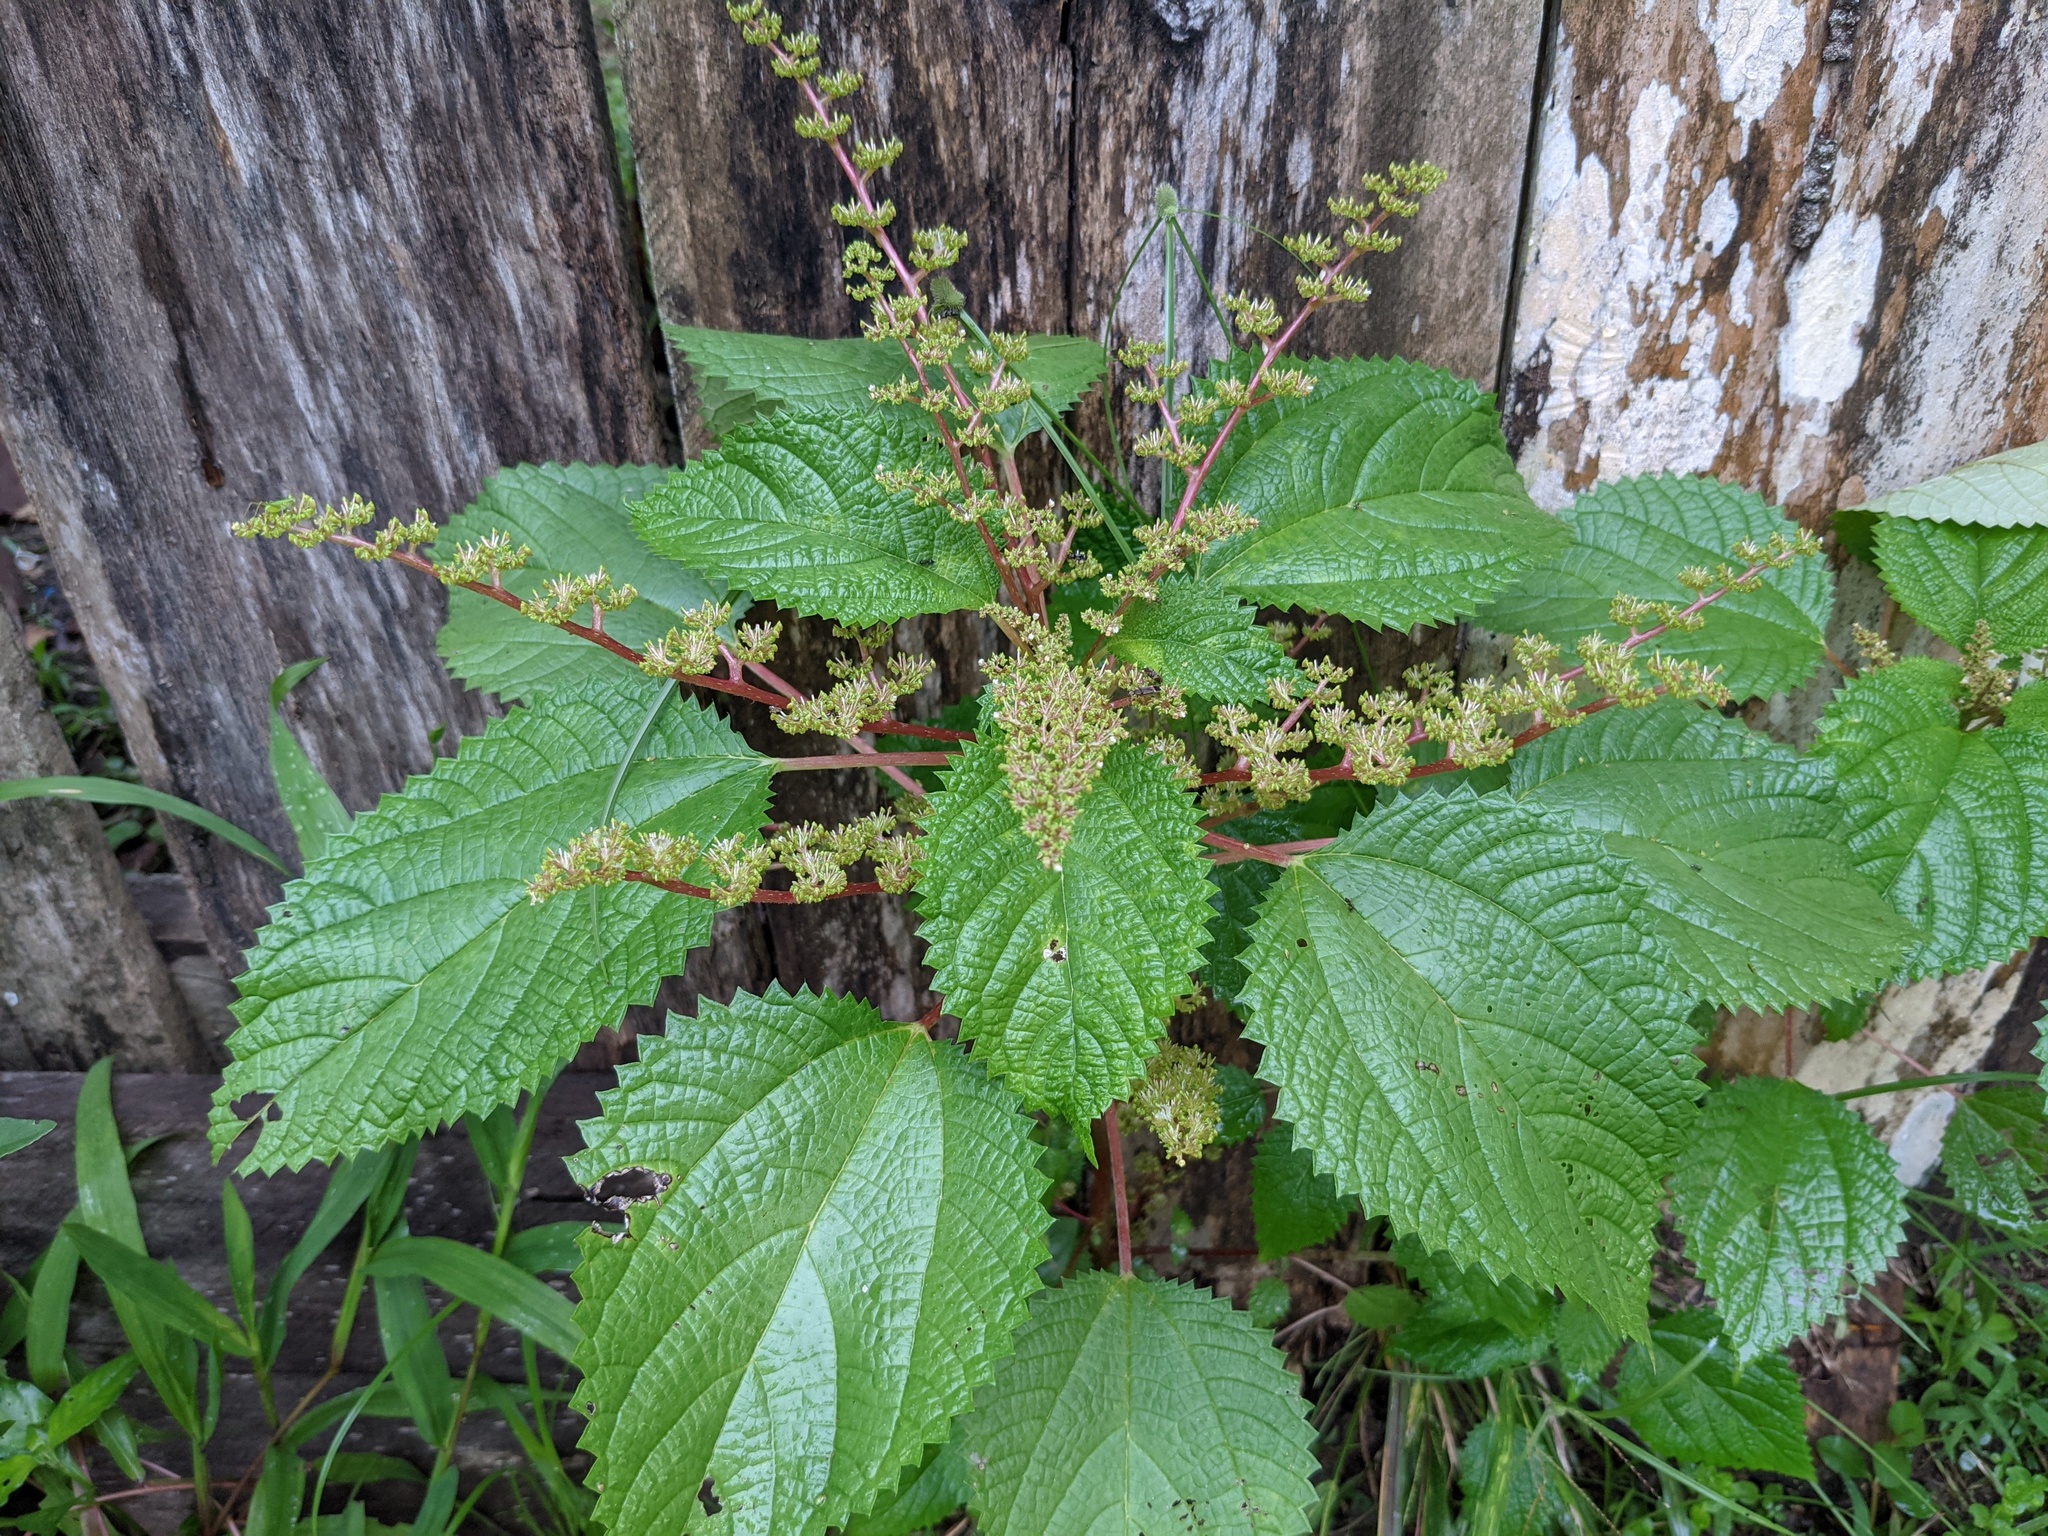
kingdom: Plantae
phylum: Tracheophyta
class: Magnoliopsida
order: Rosales
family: Urticaceae
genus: Laportea
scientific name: Laportea aestuans
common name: West indian woodnettle
